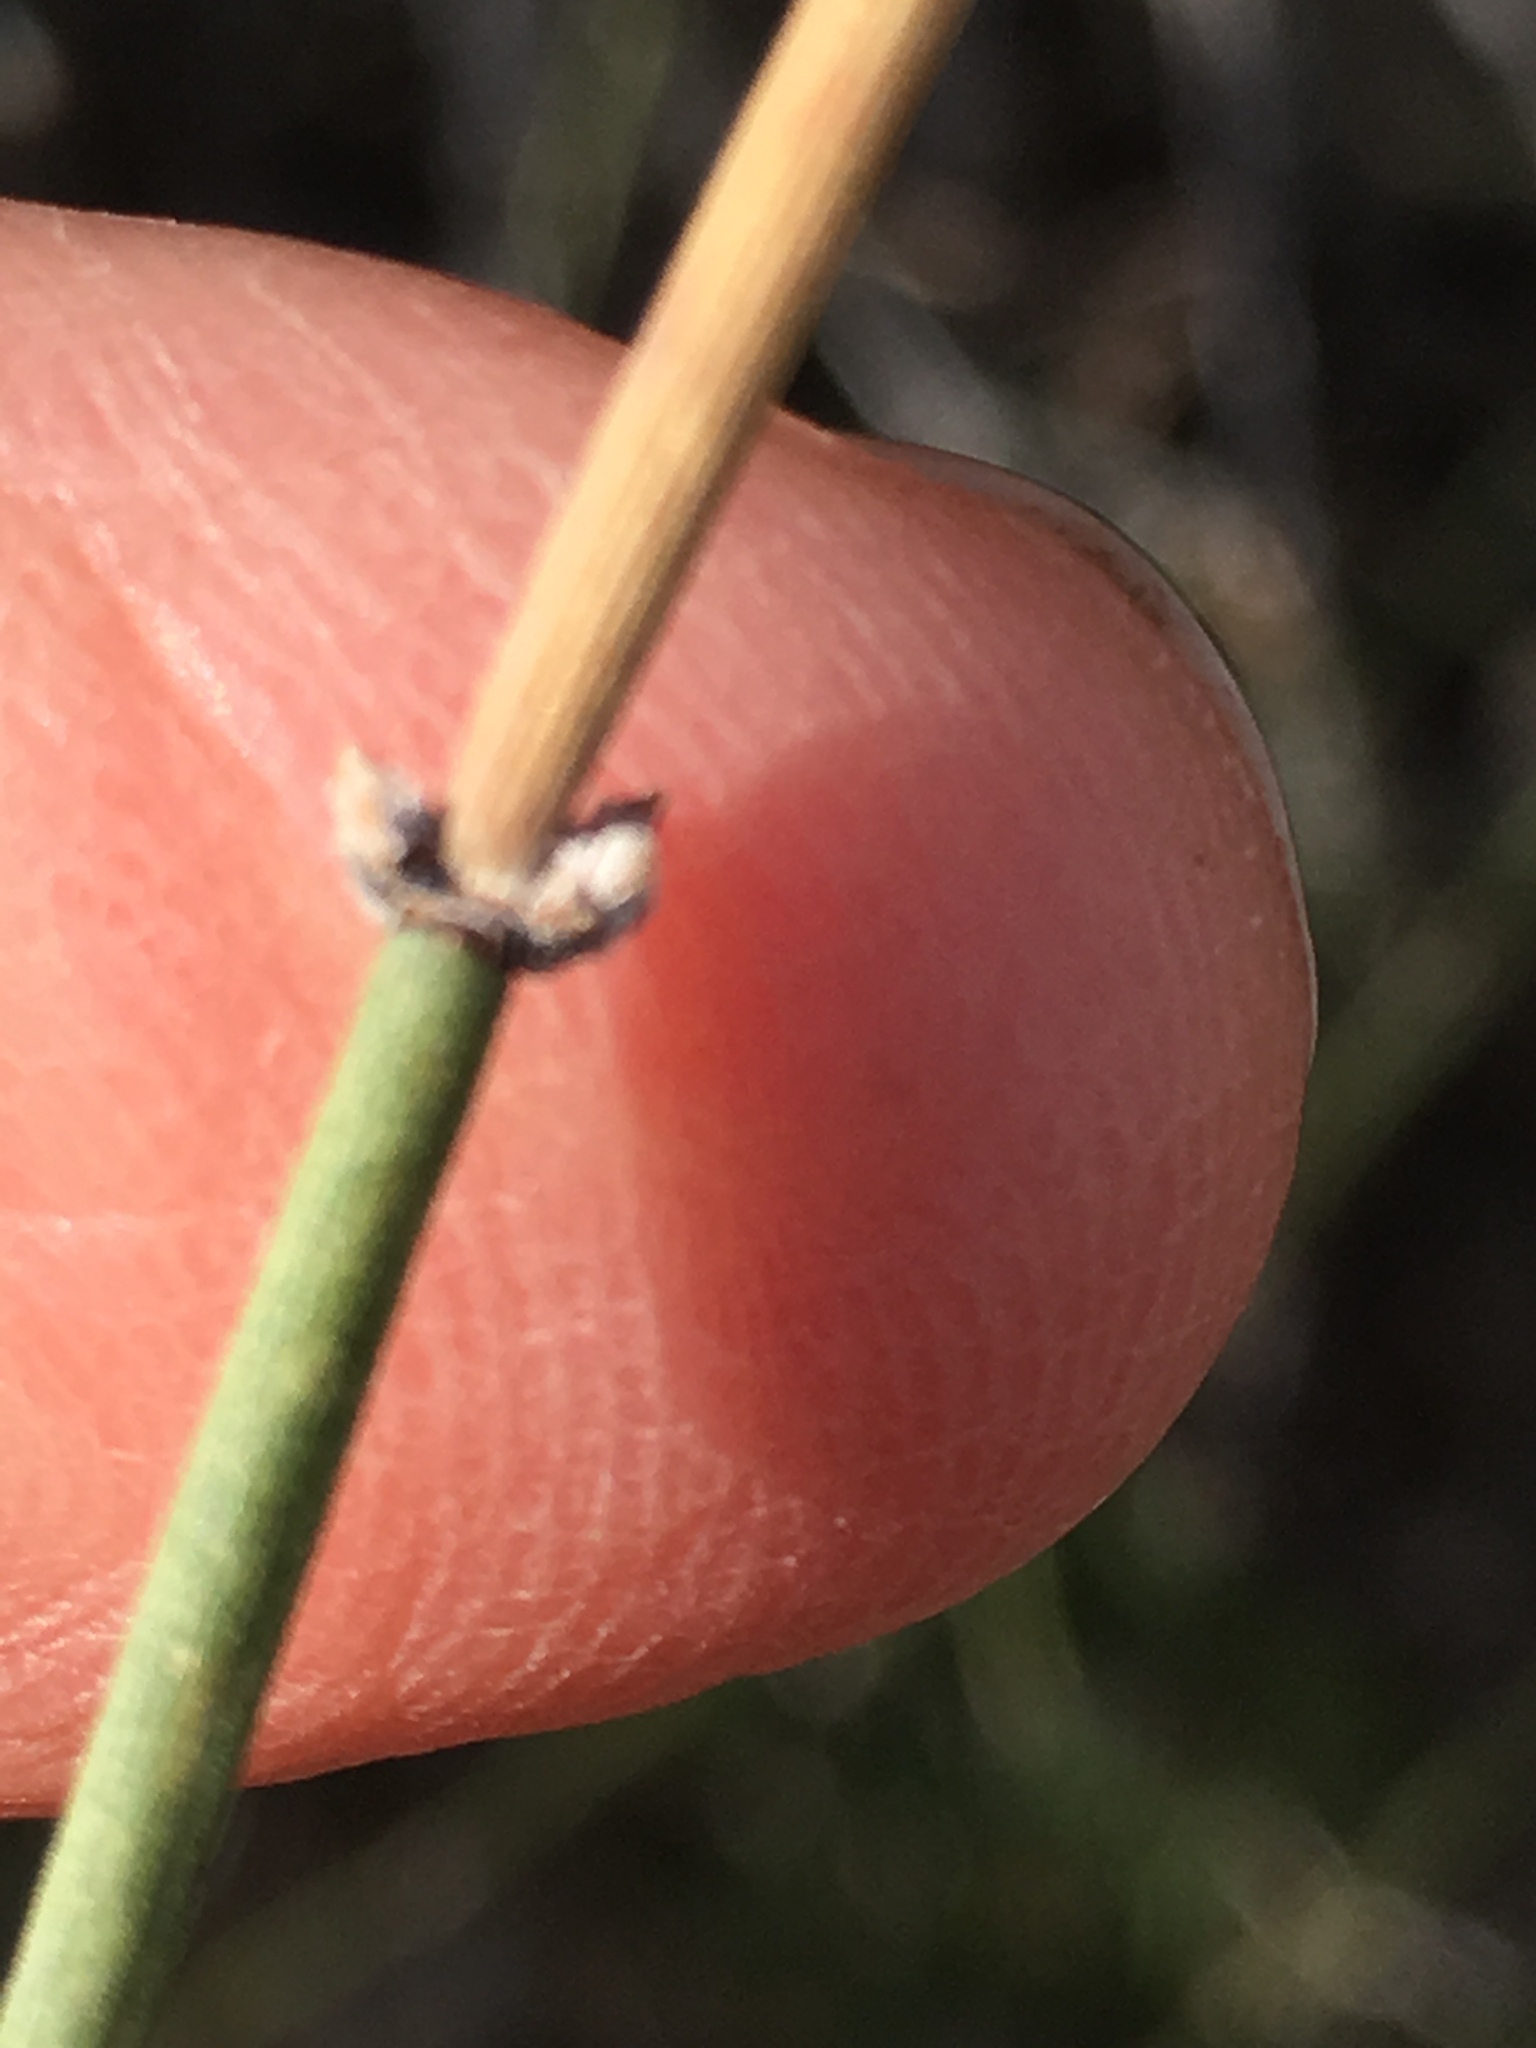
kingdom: Plantae
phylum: Tracheophyta
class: Gnetopsida
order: Ephedrales
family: Ephedraceae
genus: Ephedra
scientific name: Ephedra aspera
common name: Boundary ephedra
